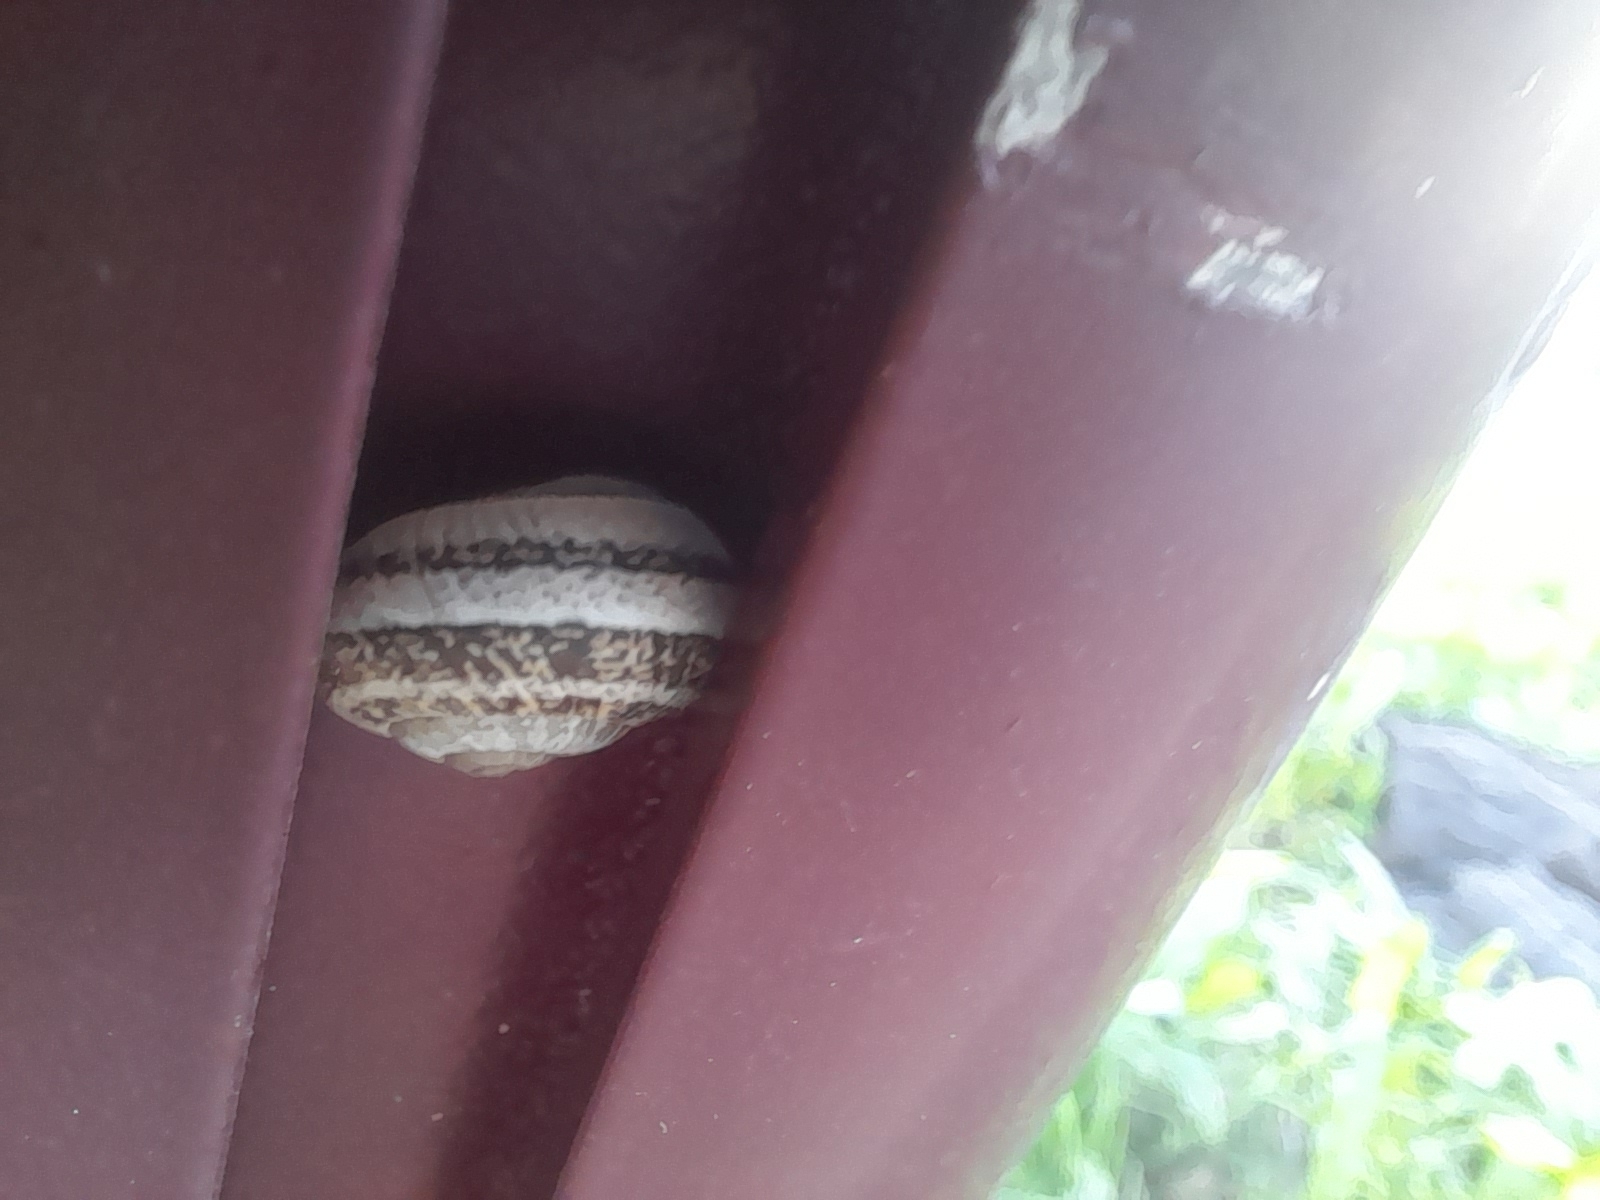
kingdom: Animalia
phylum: Mollusca
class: Gastropoda
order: Stylommatophora
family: Helicidae
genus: Eobania
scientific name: Eobania vermiculata
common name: Chocolateband snail
